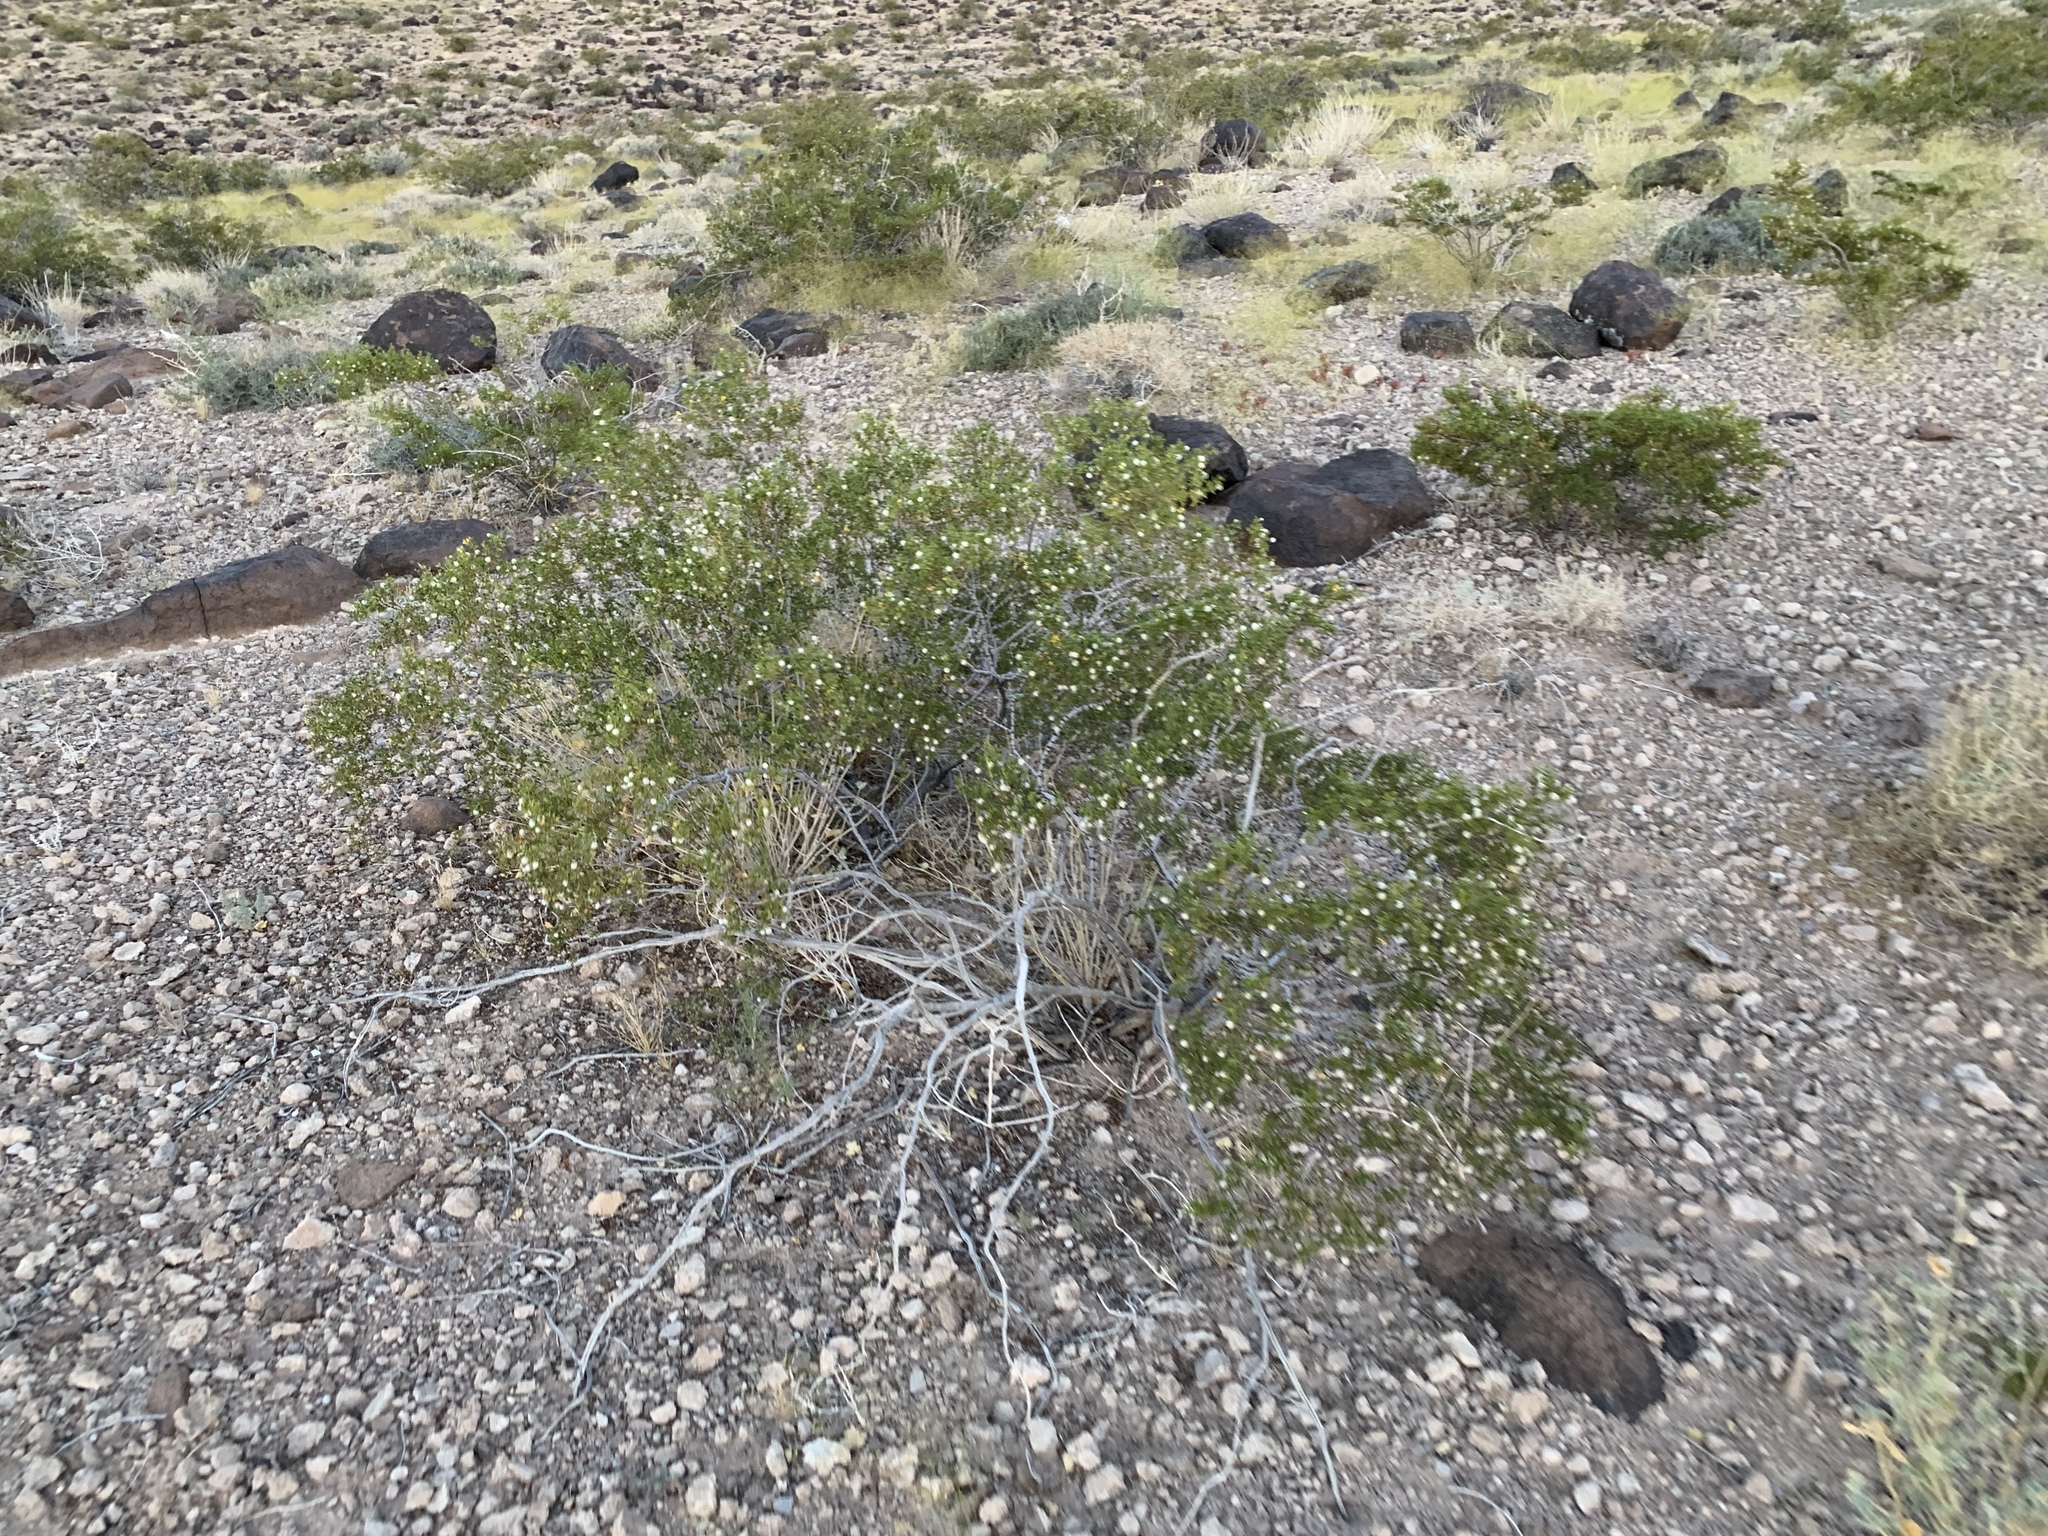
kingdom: Plantae
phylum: Tracheophyta
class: Magnoliopsida
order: Zygophyllales
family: Zygophyllaceae
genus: Larrea
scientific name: Larrea tridentata
